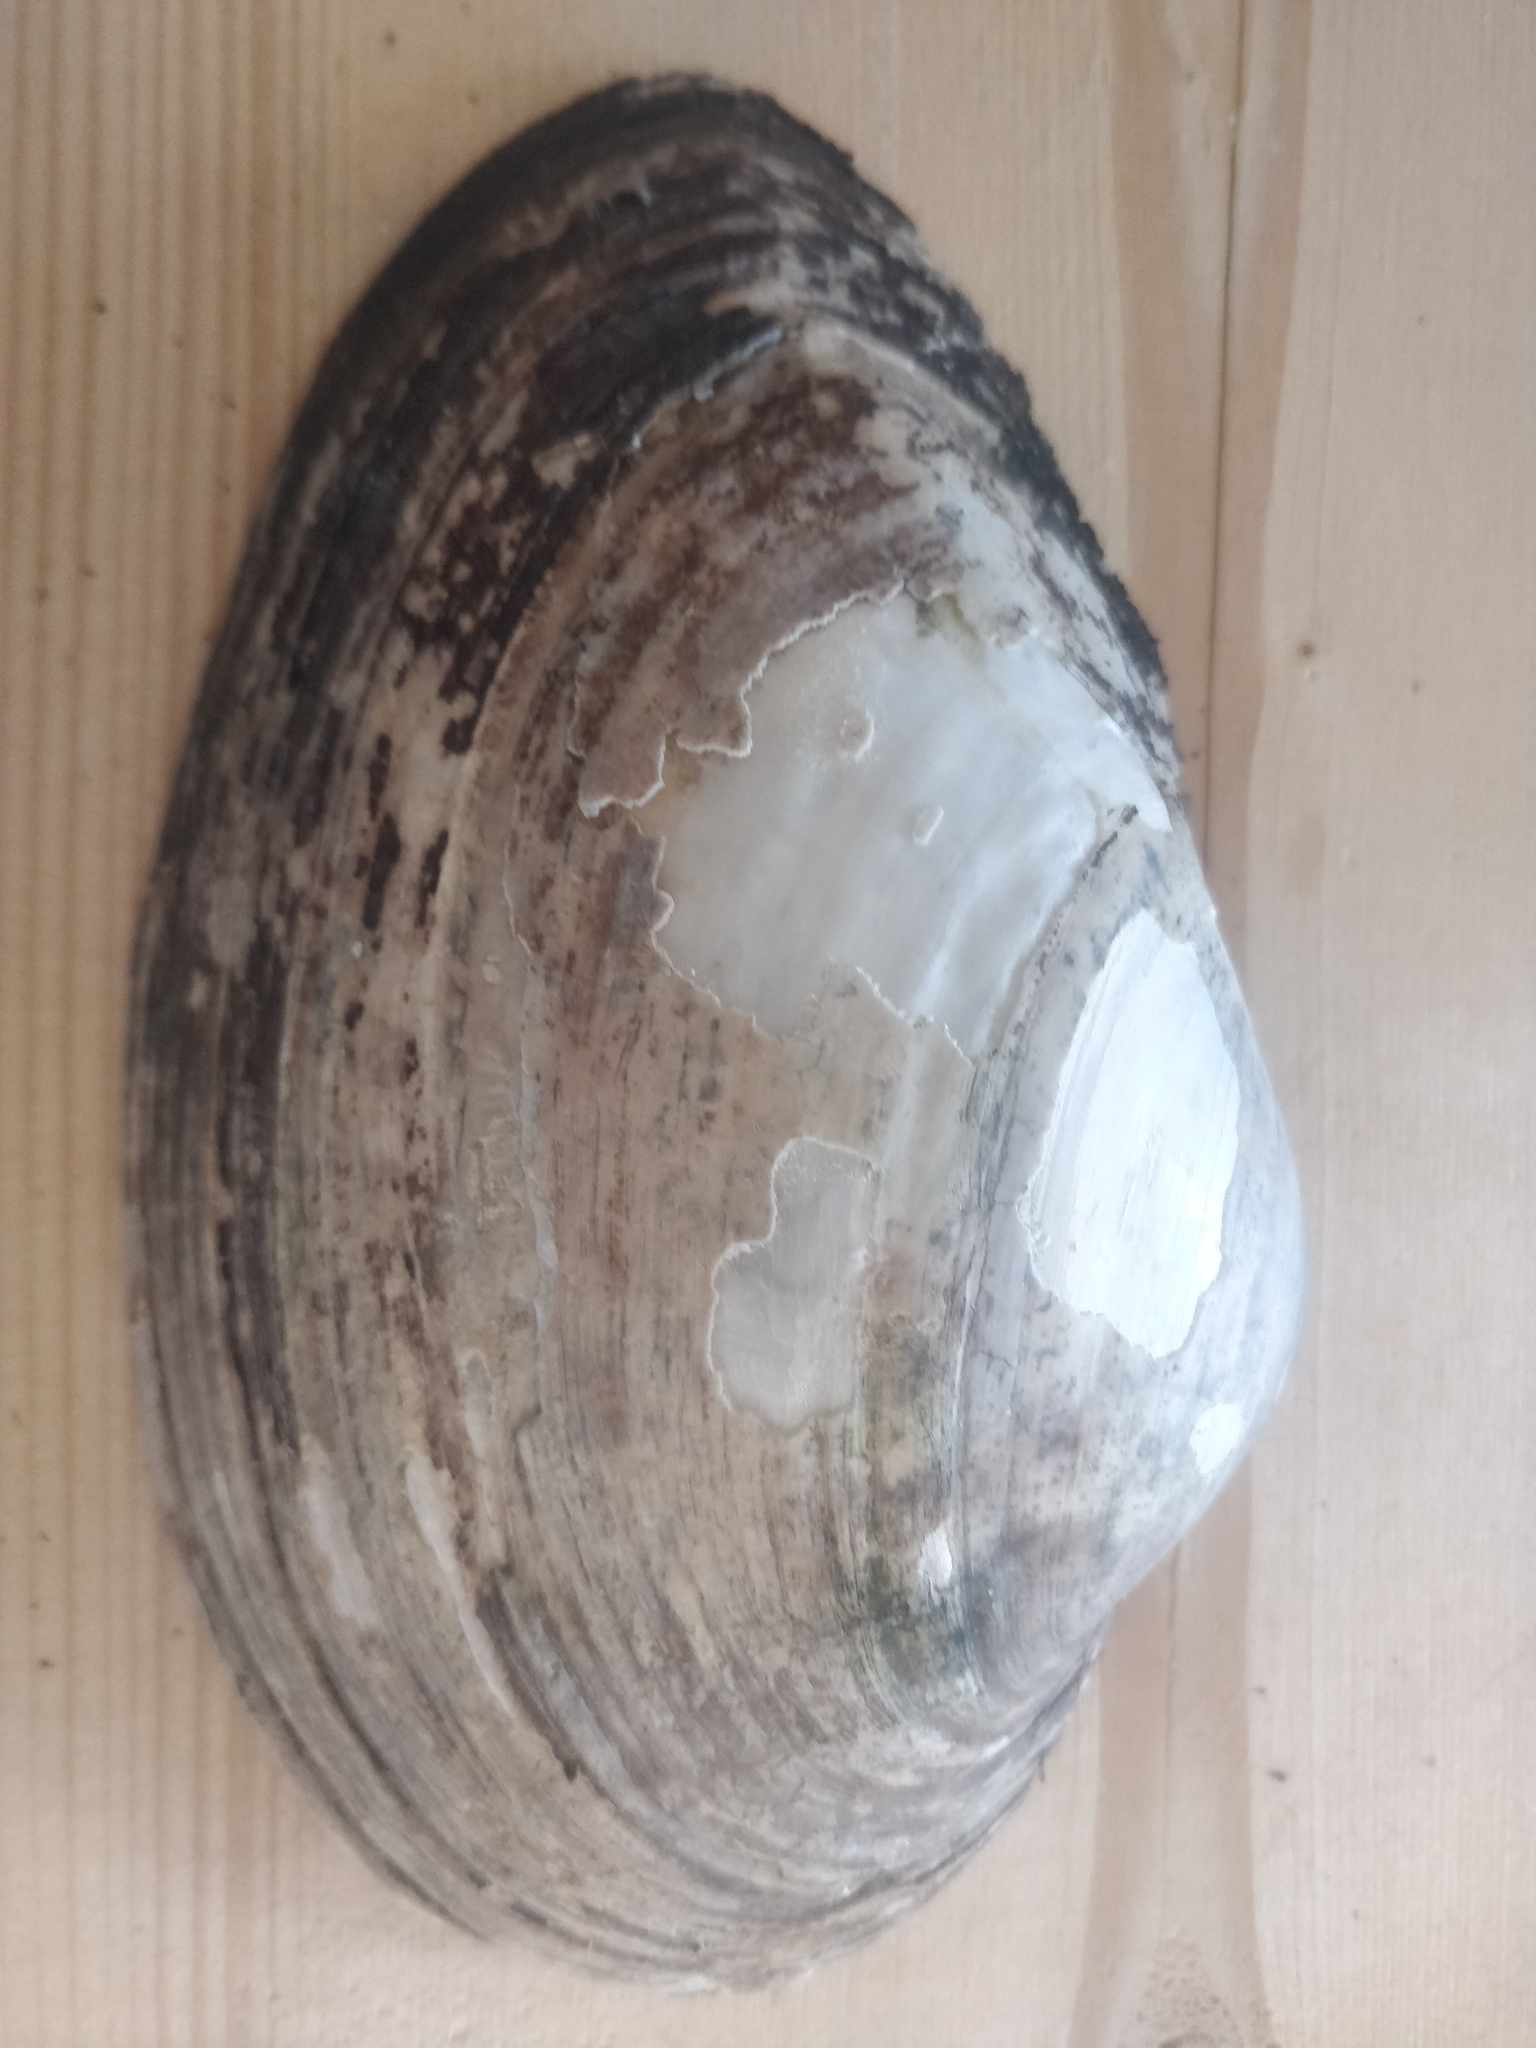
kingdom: Animalia
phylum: Mollusca
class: Bivalvia
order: Unionida
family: Unionidae
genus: Pyganodon
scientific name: Pyganodon grandis
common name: Giant floater
